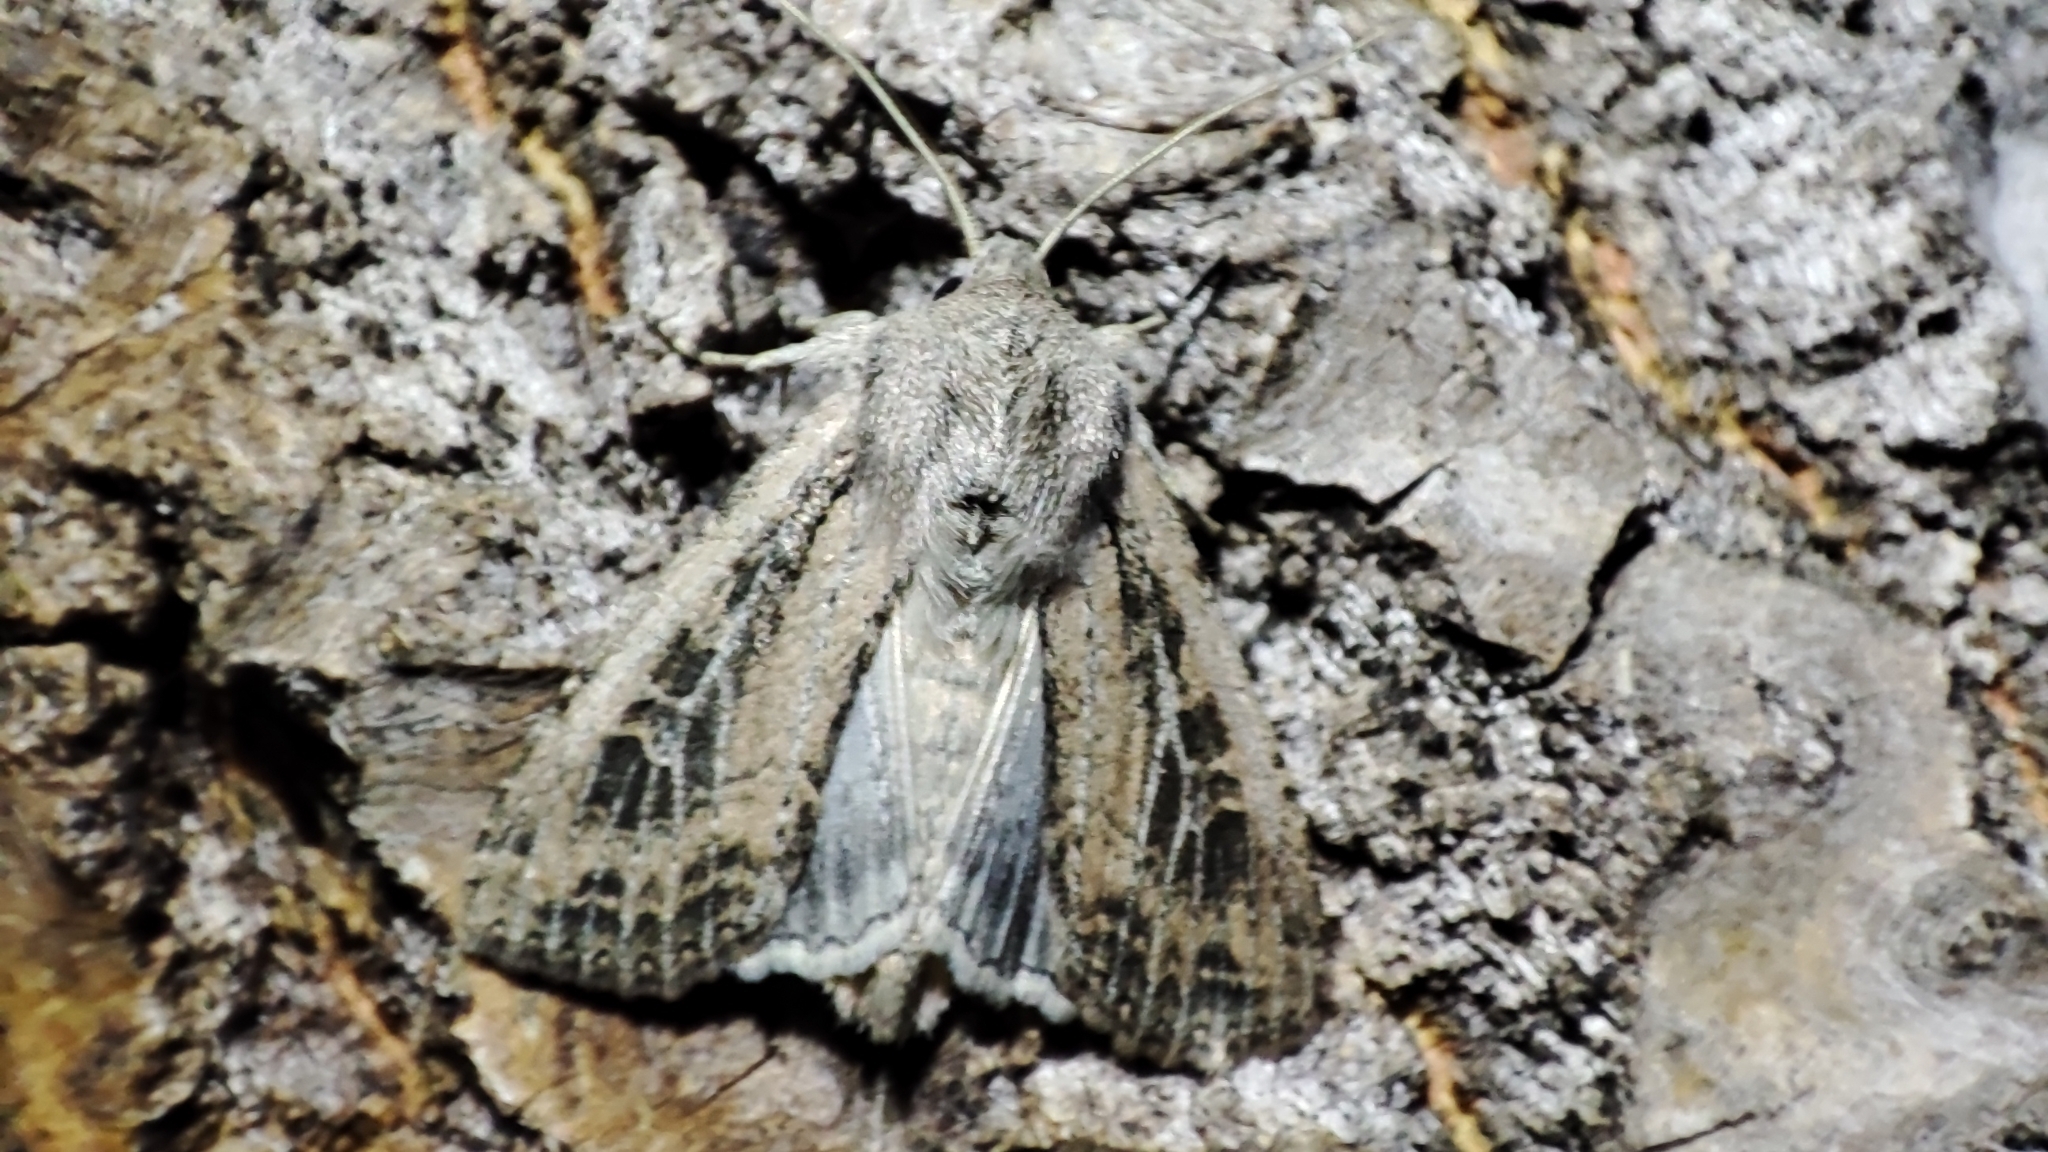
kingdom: Animalia
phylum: Arthropoda
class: Insecta
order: Lepidoptera
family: Noctuidae
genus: Fabula
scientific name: Fabula zollikoferi
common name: Scarce arches
